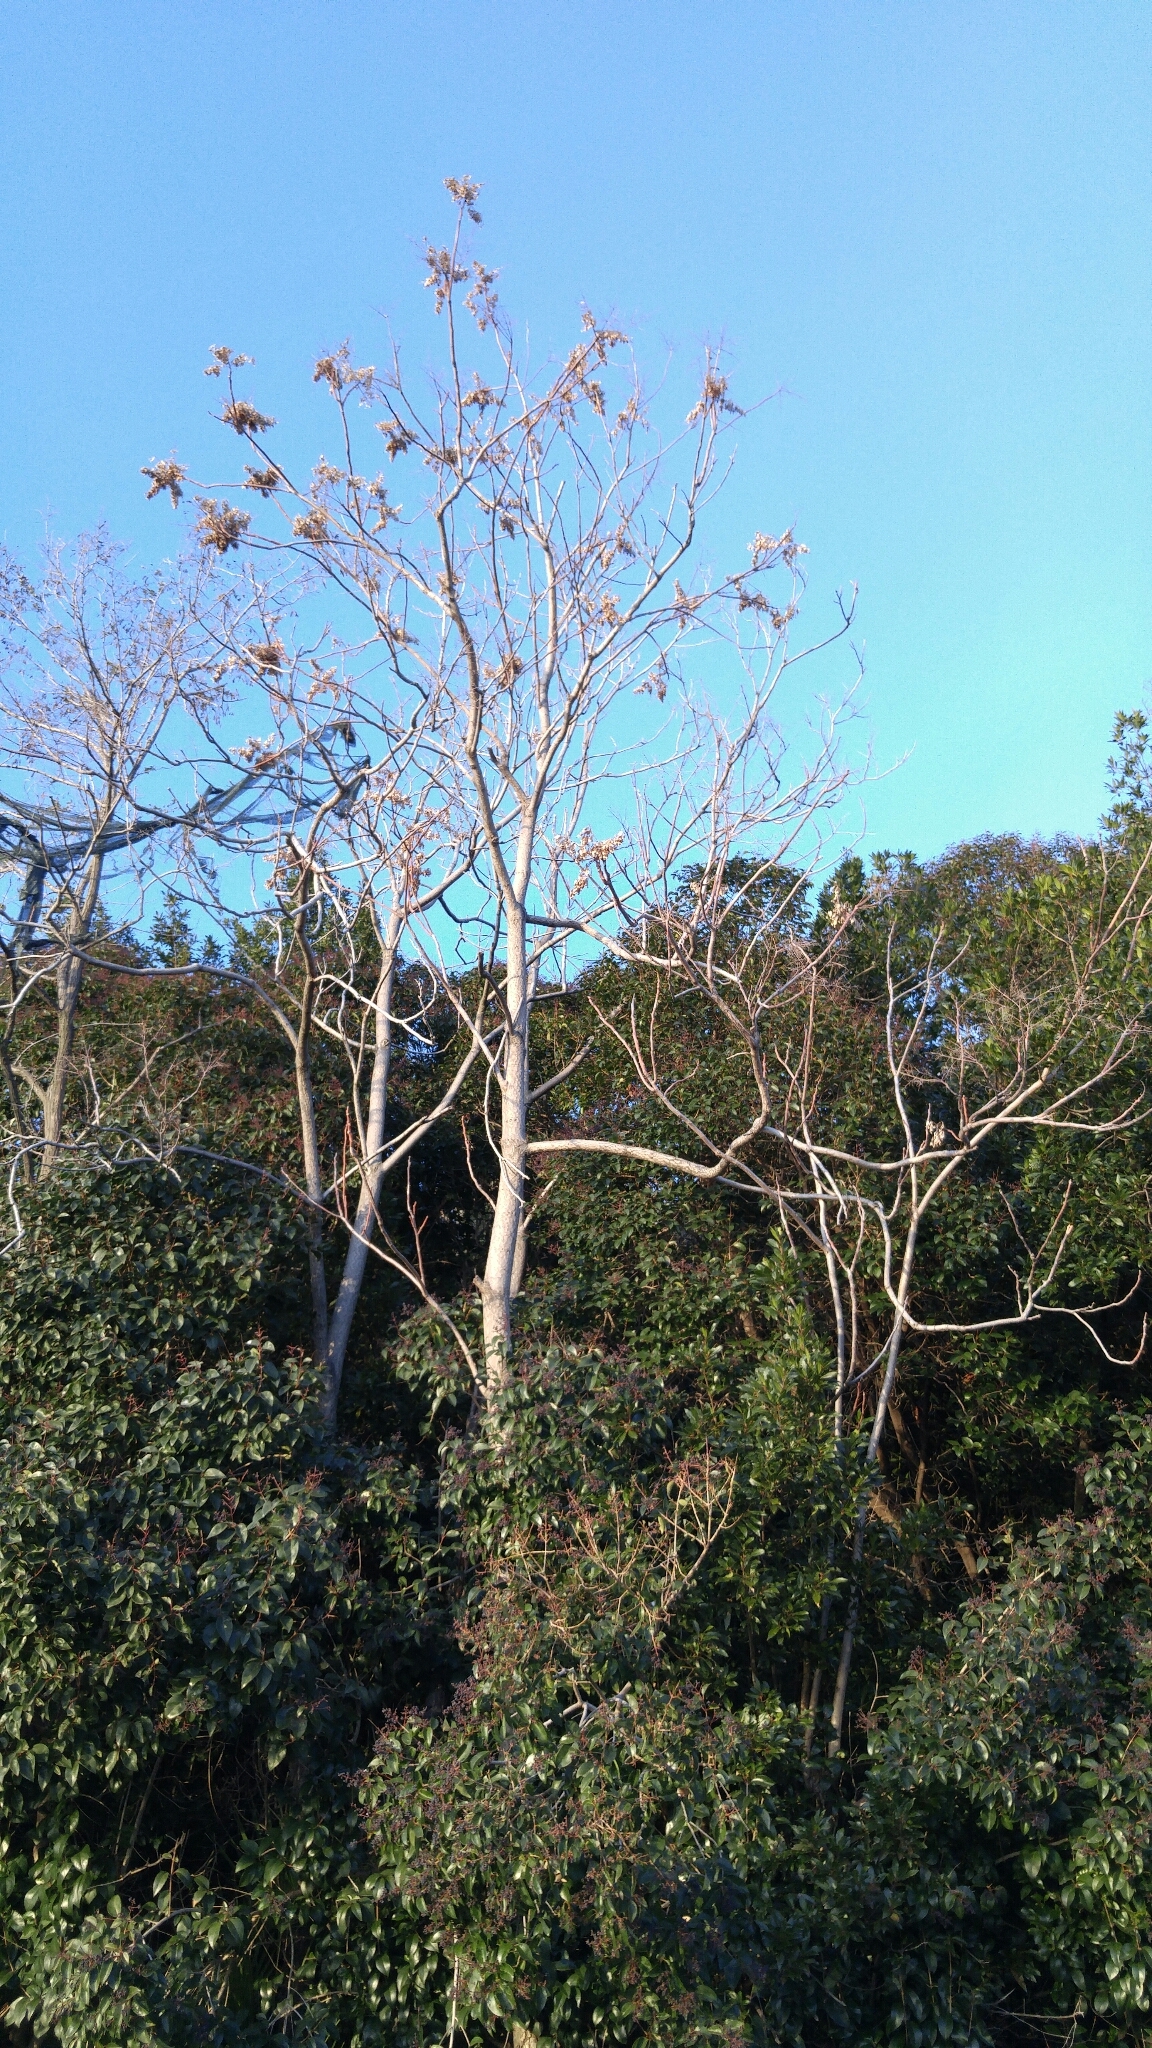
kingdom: Plantae
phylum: Tracheophyta
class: Magnoliopsida
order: Sapindales
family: Simaroubaceae
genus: Ailanthus
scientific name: Ailanthus altissima
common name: Tree-of-heaven
